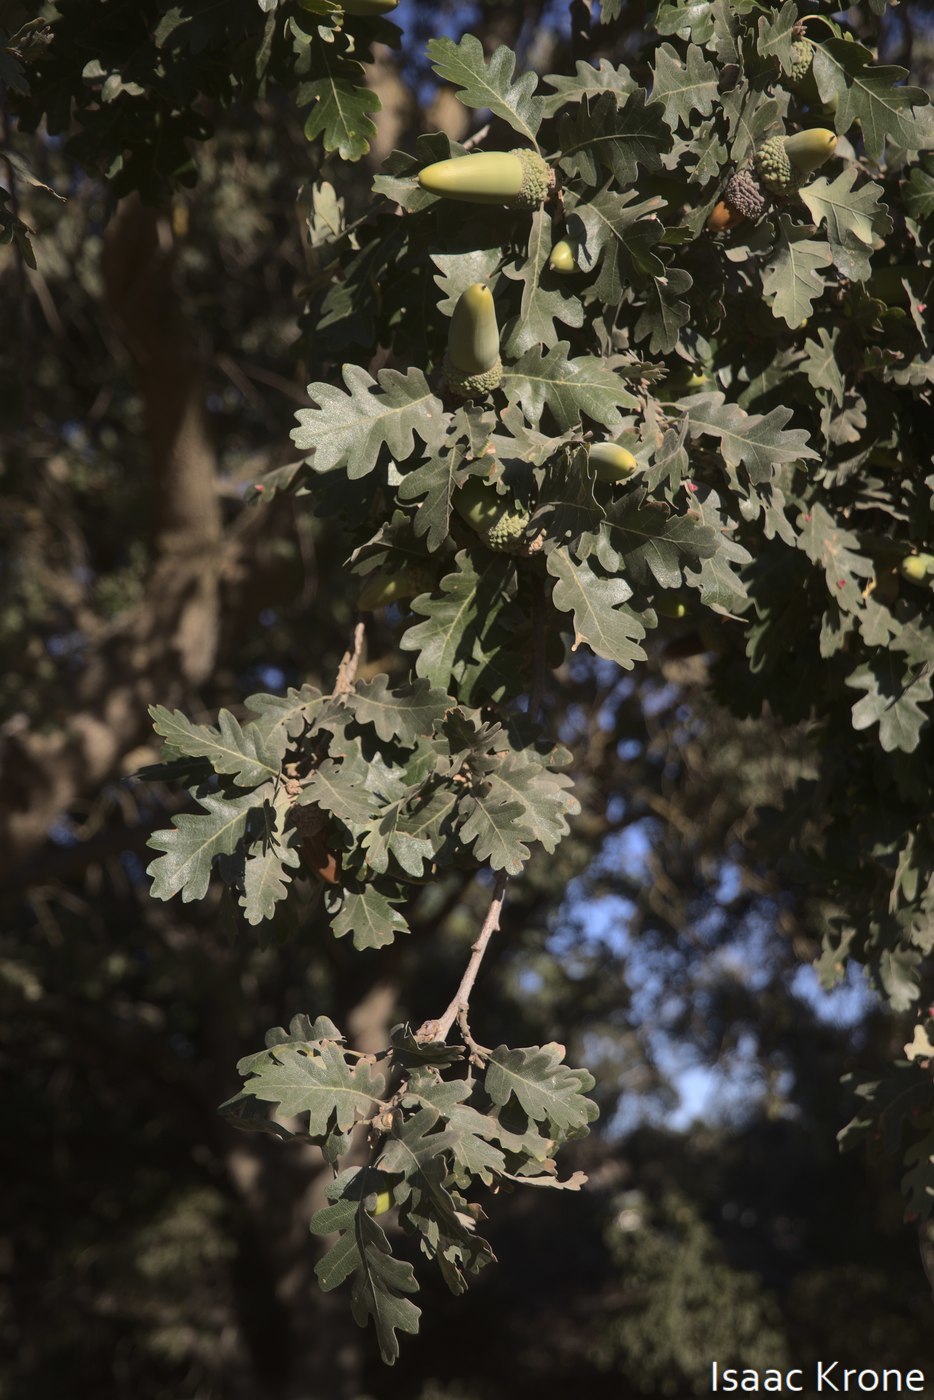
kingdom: Plantae
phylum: Tracheophyta
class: Magnoliopsida
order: Fagales
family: Fagaceae
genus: Quercus
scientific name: Quercus lobata
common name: Valley oak
